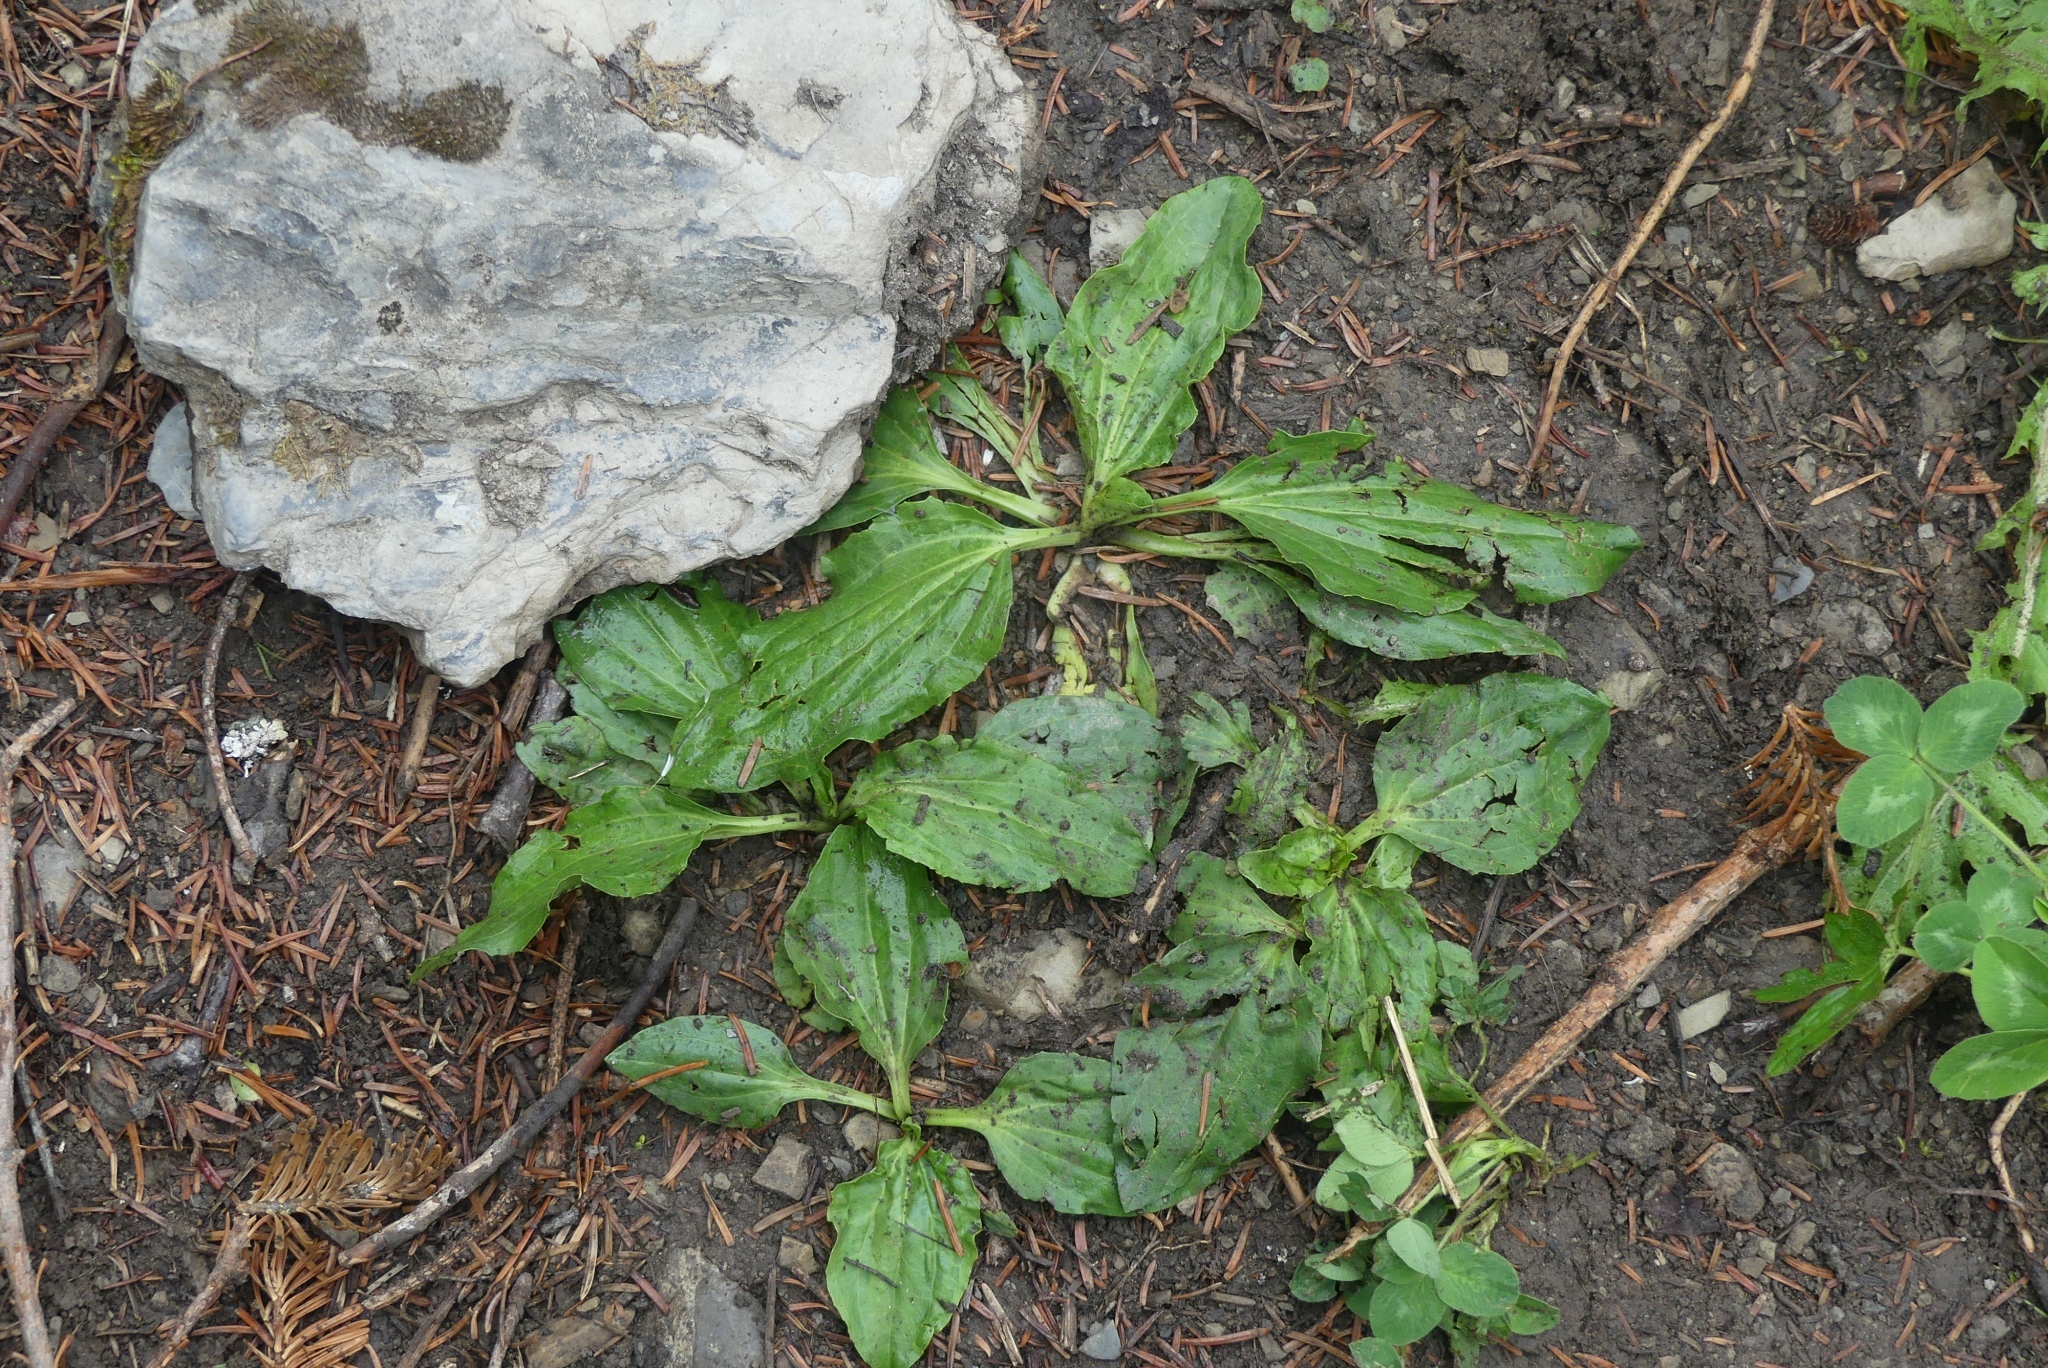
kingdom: Plantae
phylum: Tracheophyta
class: Magnoliopsida
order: Lamiales
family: Plantaginaceae
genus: Plantago
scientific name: Plantago major
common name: Common plantain
